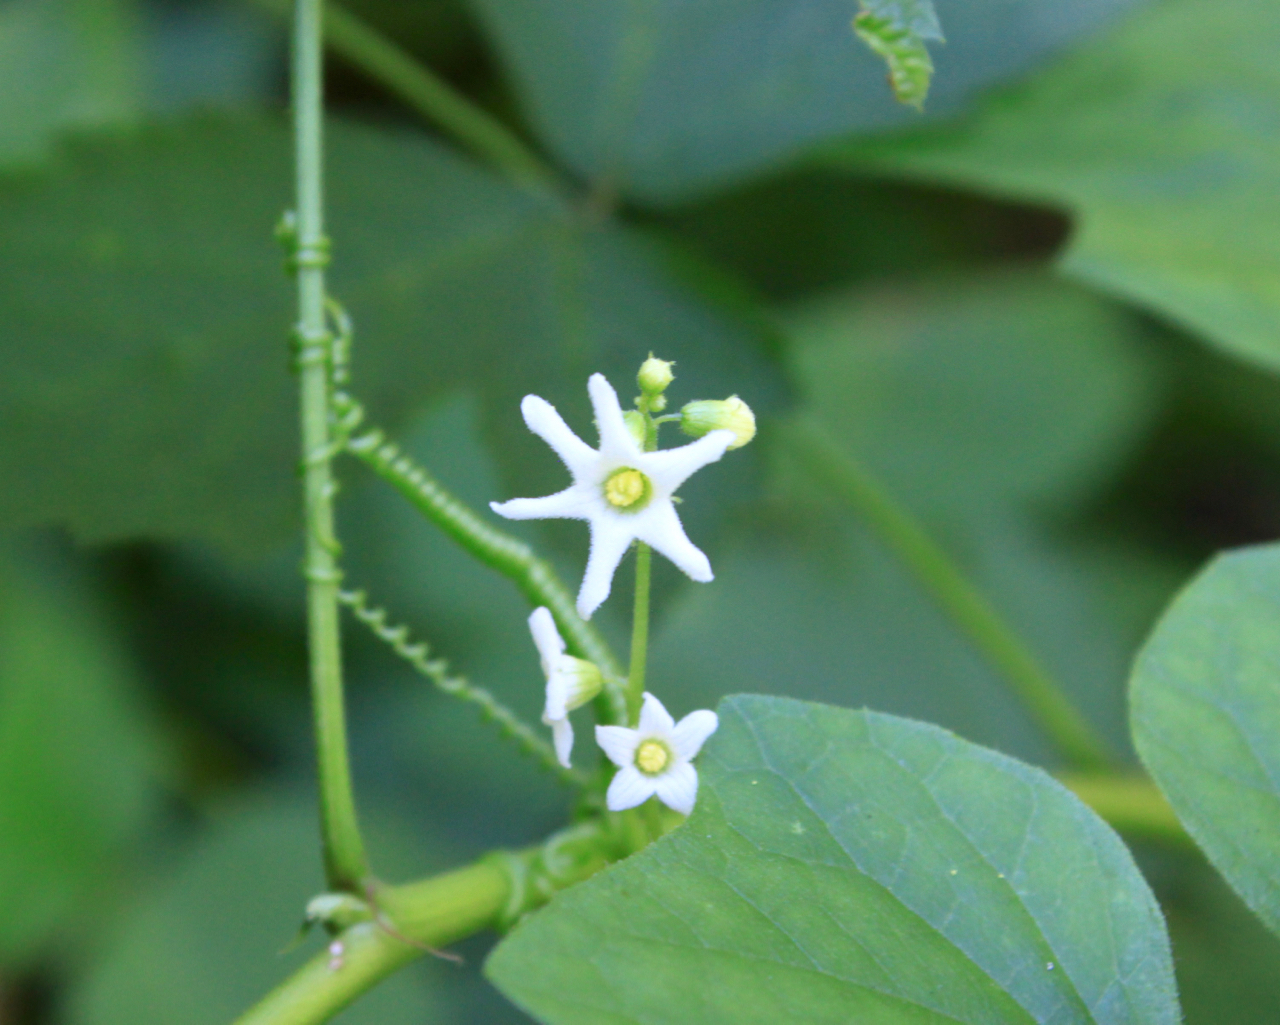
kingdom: Plantae
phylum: Tracheophyta
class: Magnoliopsida
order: Cucurbitales
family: Cucurbitaceae
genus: Marah
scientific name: Marah oregana
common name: Coastal manroot
